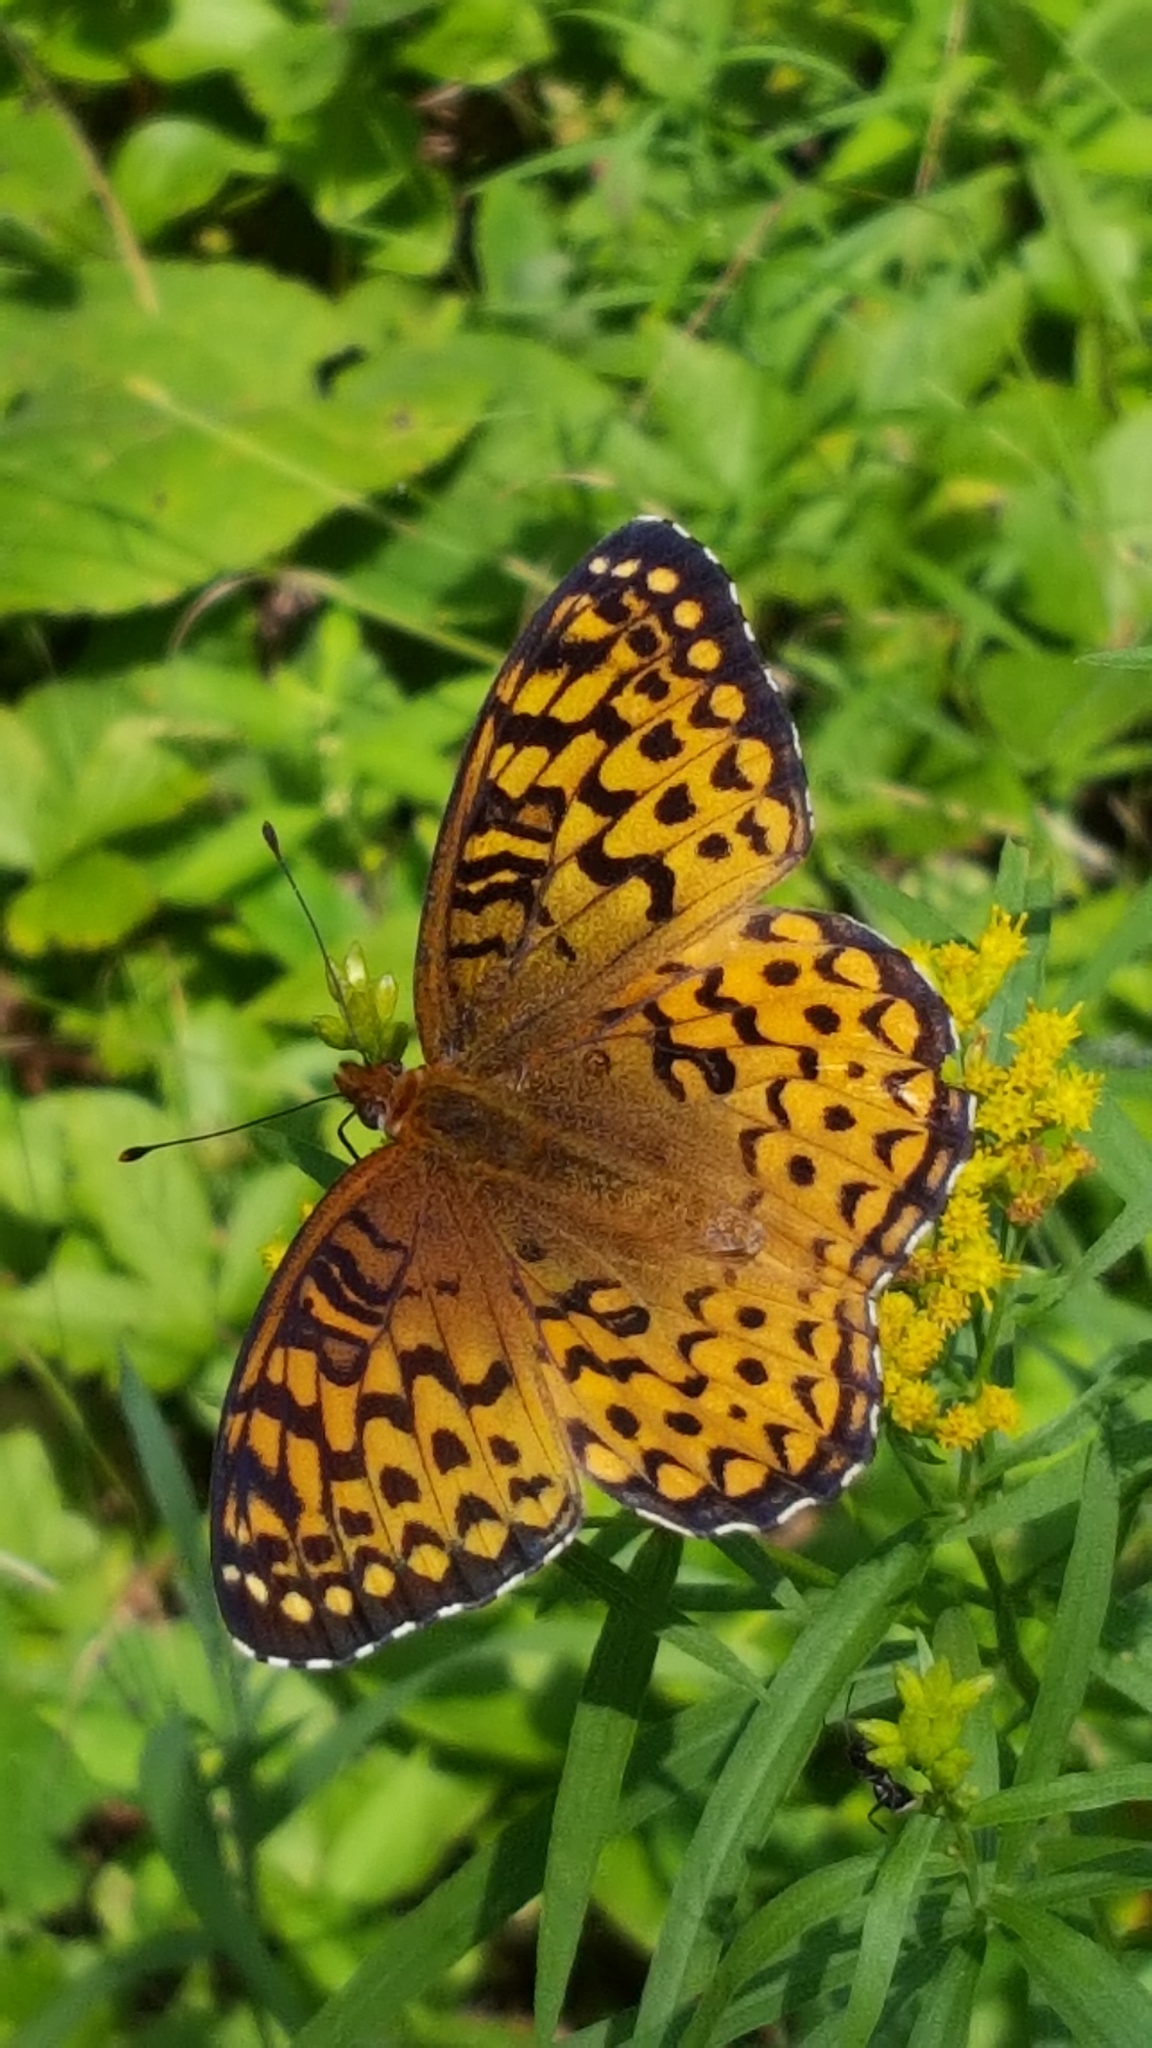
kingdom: Animalia
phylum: Arthropoda
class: Insecta
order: Lepidoptera
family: Nymphalidae
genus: Speyeria
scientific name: Speyeria atlantis
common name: Atlantis fritillary
